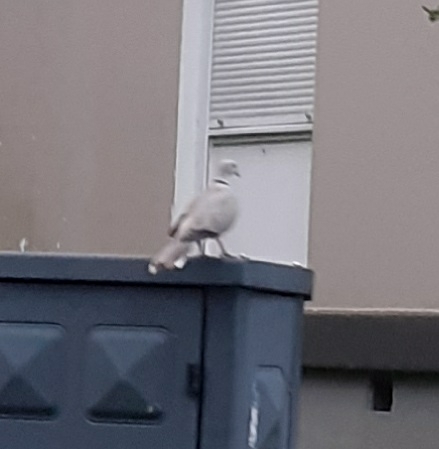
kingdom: Animalia
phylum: Chordata
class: Aves
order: Columbiformes
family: Columbidae
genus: Streptopelia
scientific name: Streptopelia decaocto
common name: Eurasian collared dove
